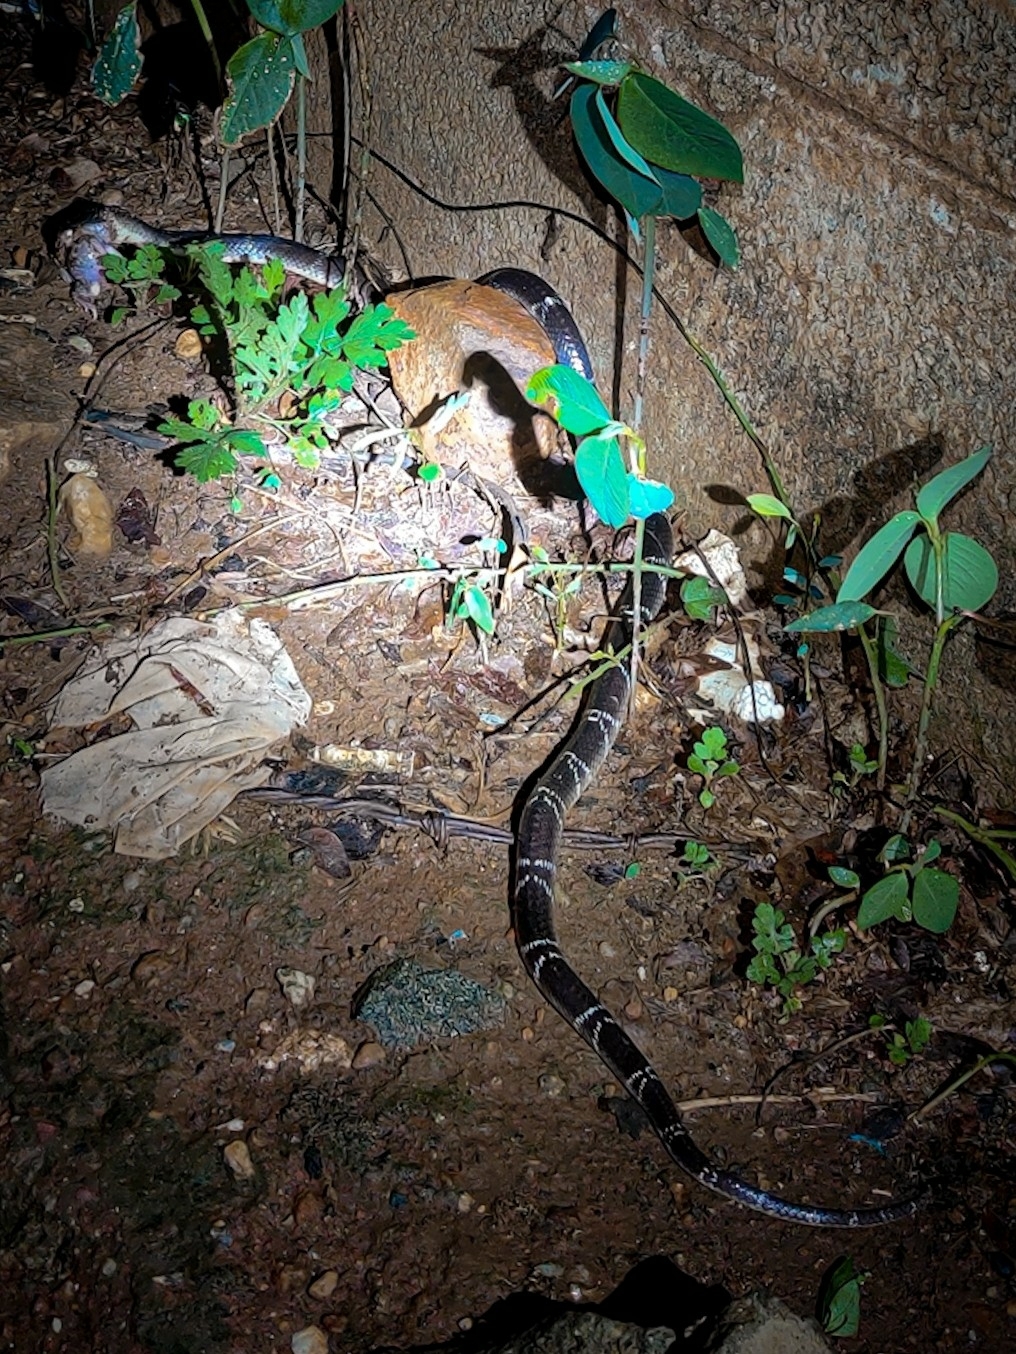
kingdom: Animalia
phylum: Chordata
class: Squamata
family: Elapidae
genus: Bungarus
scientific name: Bungarus caeruleus
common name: Common krait
